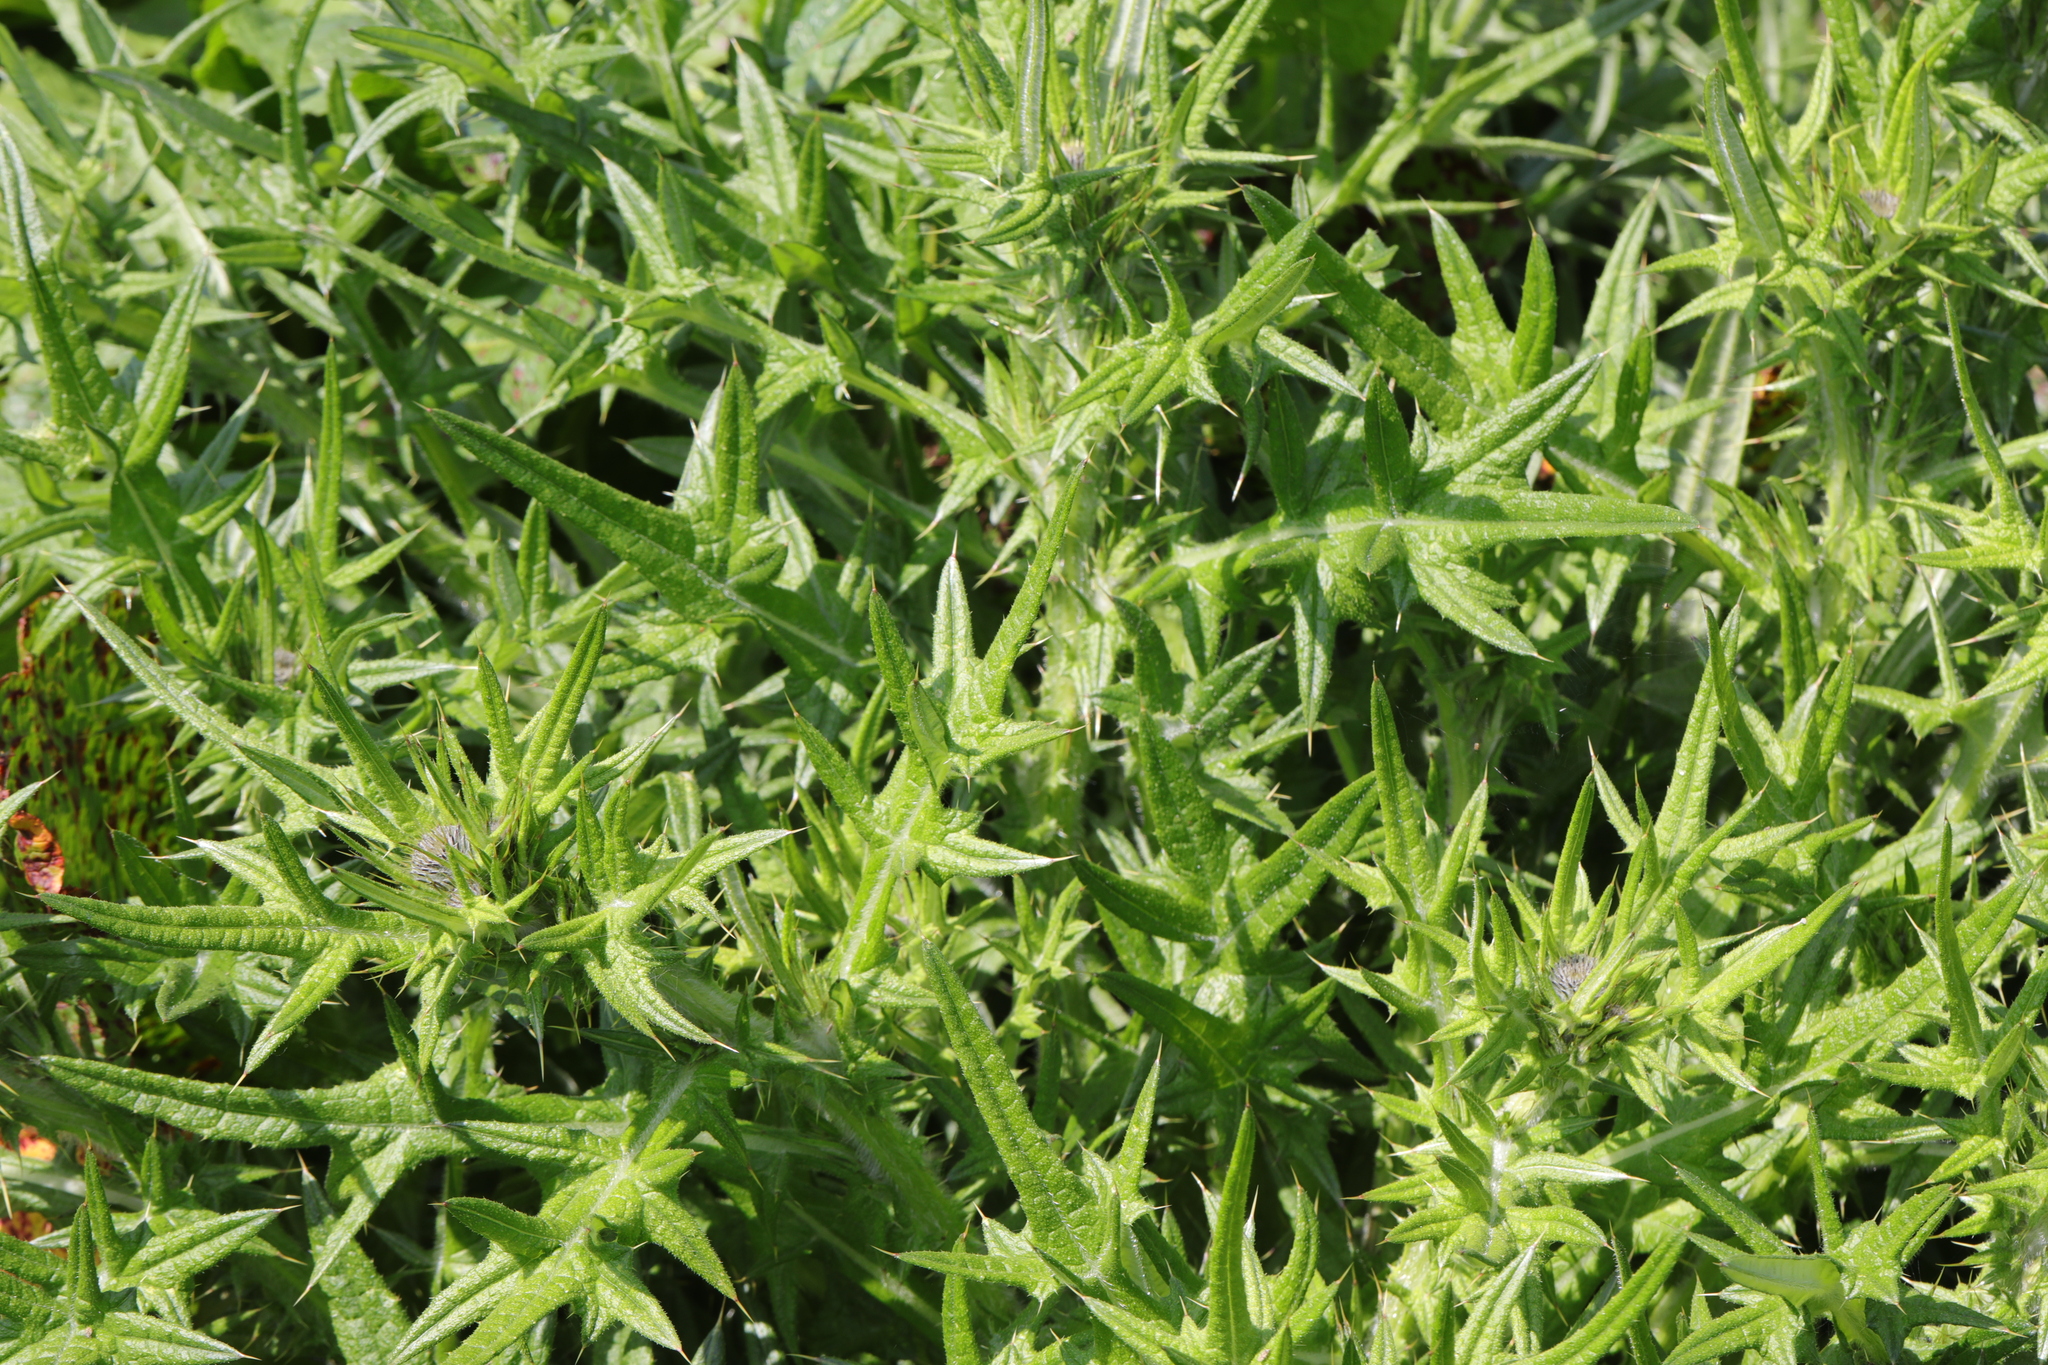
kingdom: Plantae
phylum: Tracheophyta
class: Magnoliopsida
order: Asterales
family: Asteraceae
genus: Cirsium
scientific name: Cirsium vulgare
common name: Bull thistle
